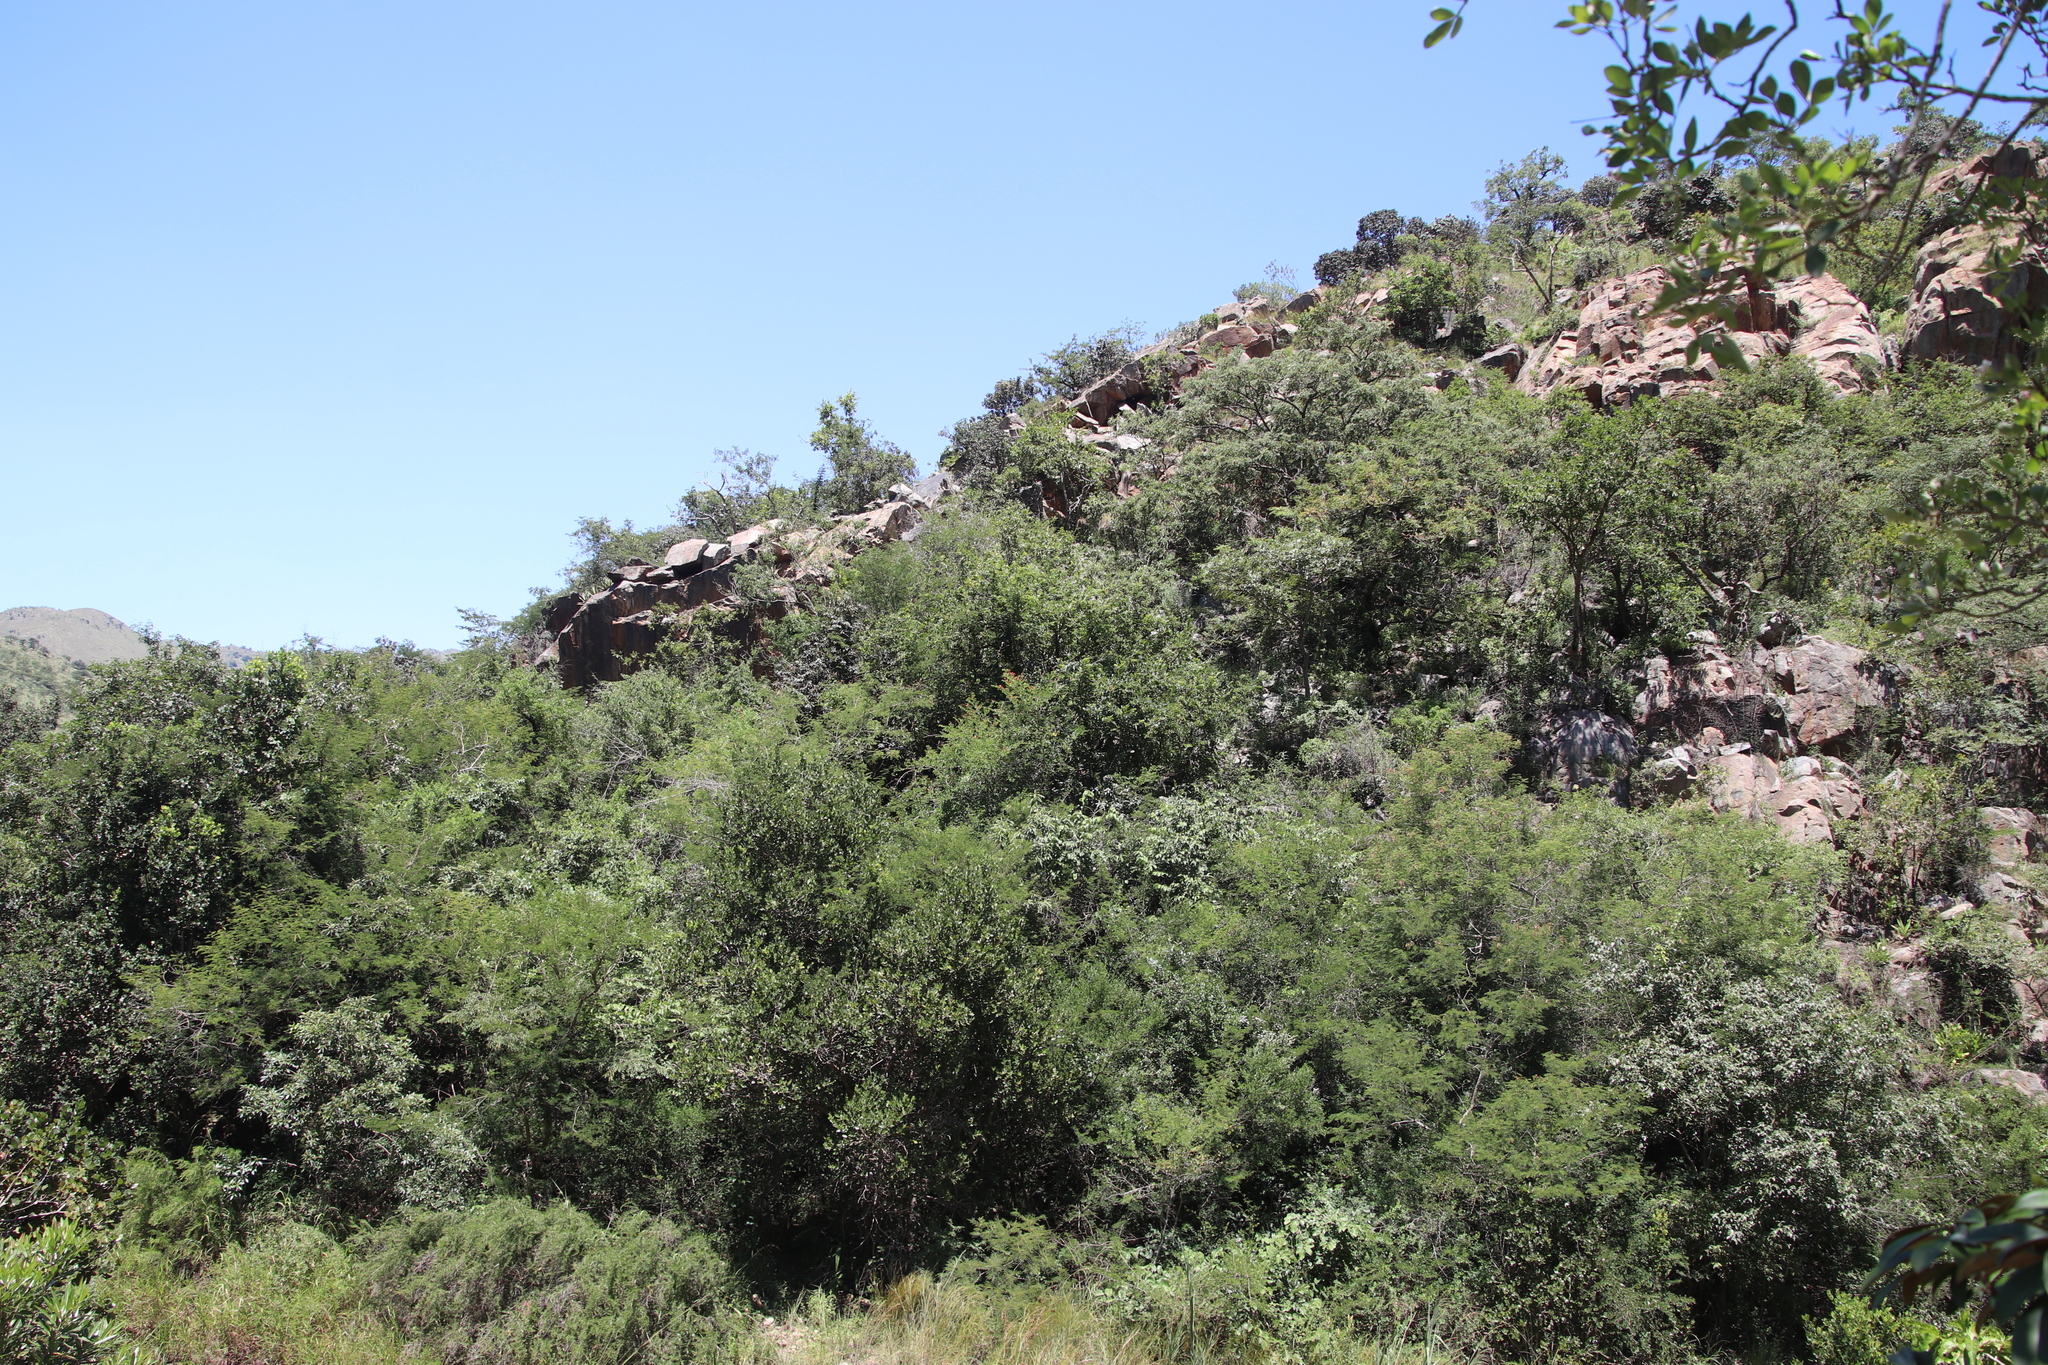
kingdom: Plantae
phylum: Tracheophyta
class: Magnoliopsida
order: Fabales
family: Fabaceae
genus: Acacia
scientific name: Acacia dealbata
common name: Silver wattle
